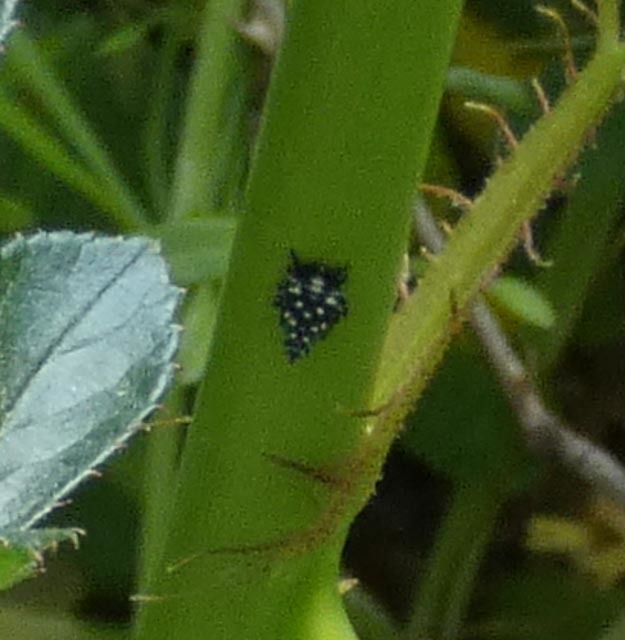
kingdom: Animalia
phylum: Arthropoda
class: Insecta
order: Hemiptera
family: Fulgoridae
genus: Lycorma
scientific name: Lycorma delicatula
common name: Spotted lanternfly
